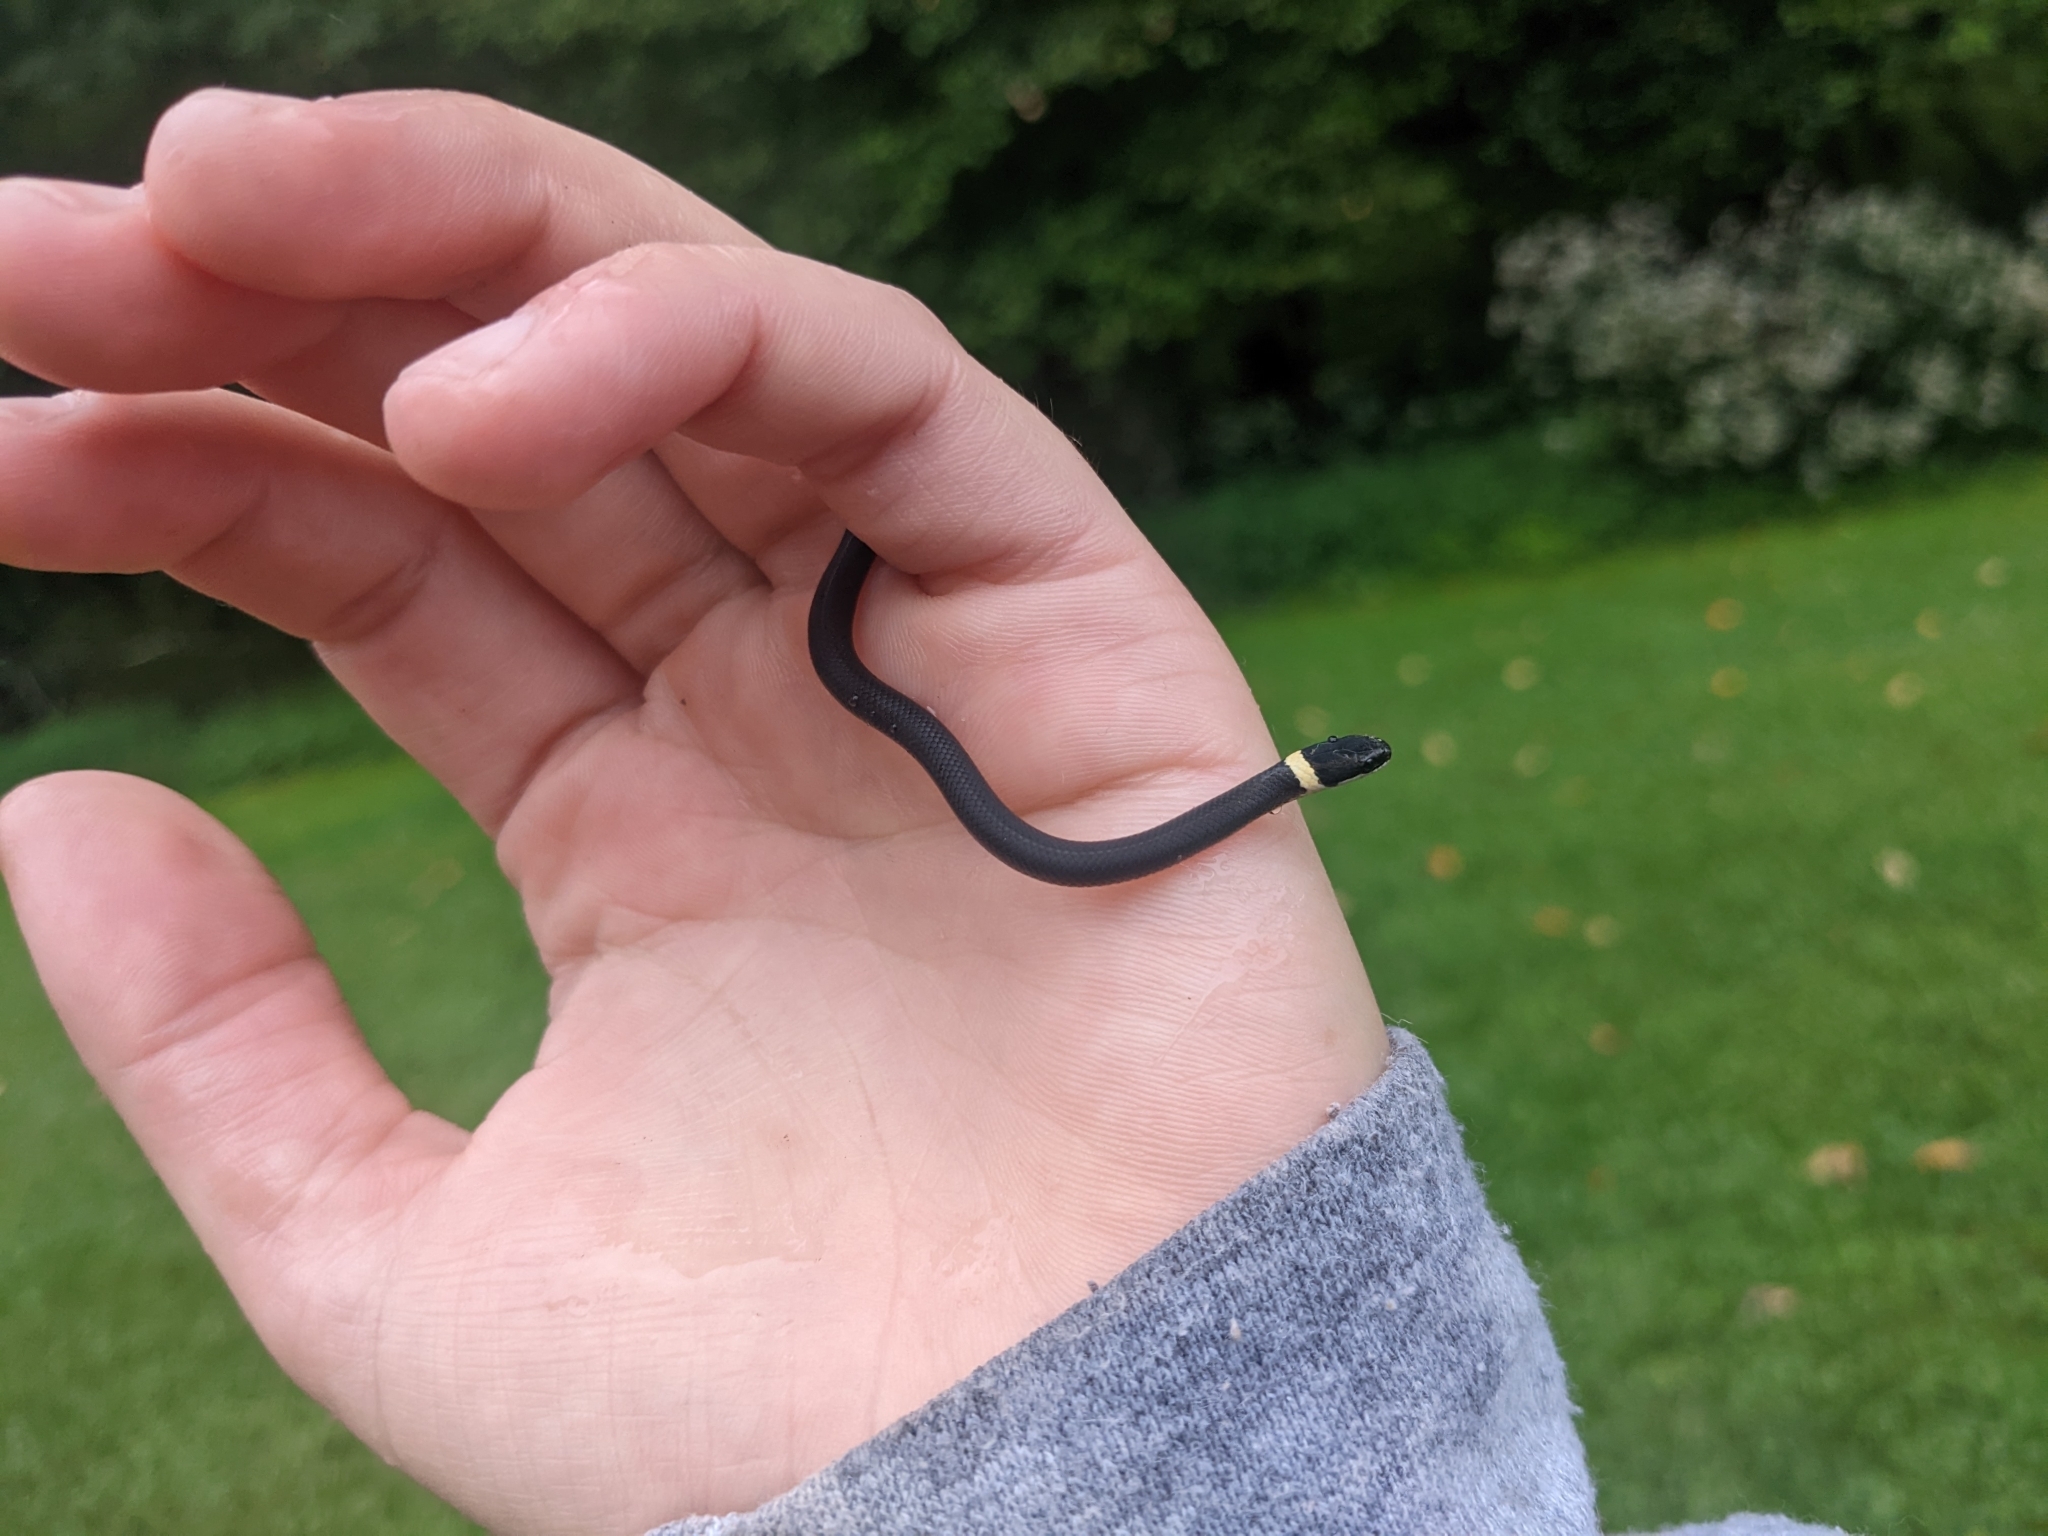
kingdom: Animalia
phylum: Chordata
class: Squamata
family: Colubridae
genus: Diadophis
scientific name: Diadophis punctatus
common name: Ringneck snake
